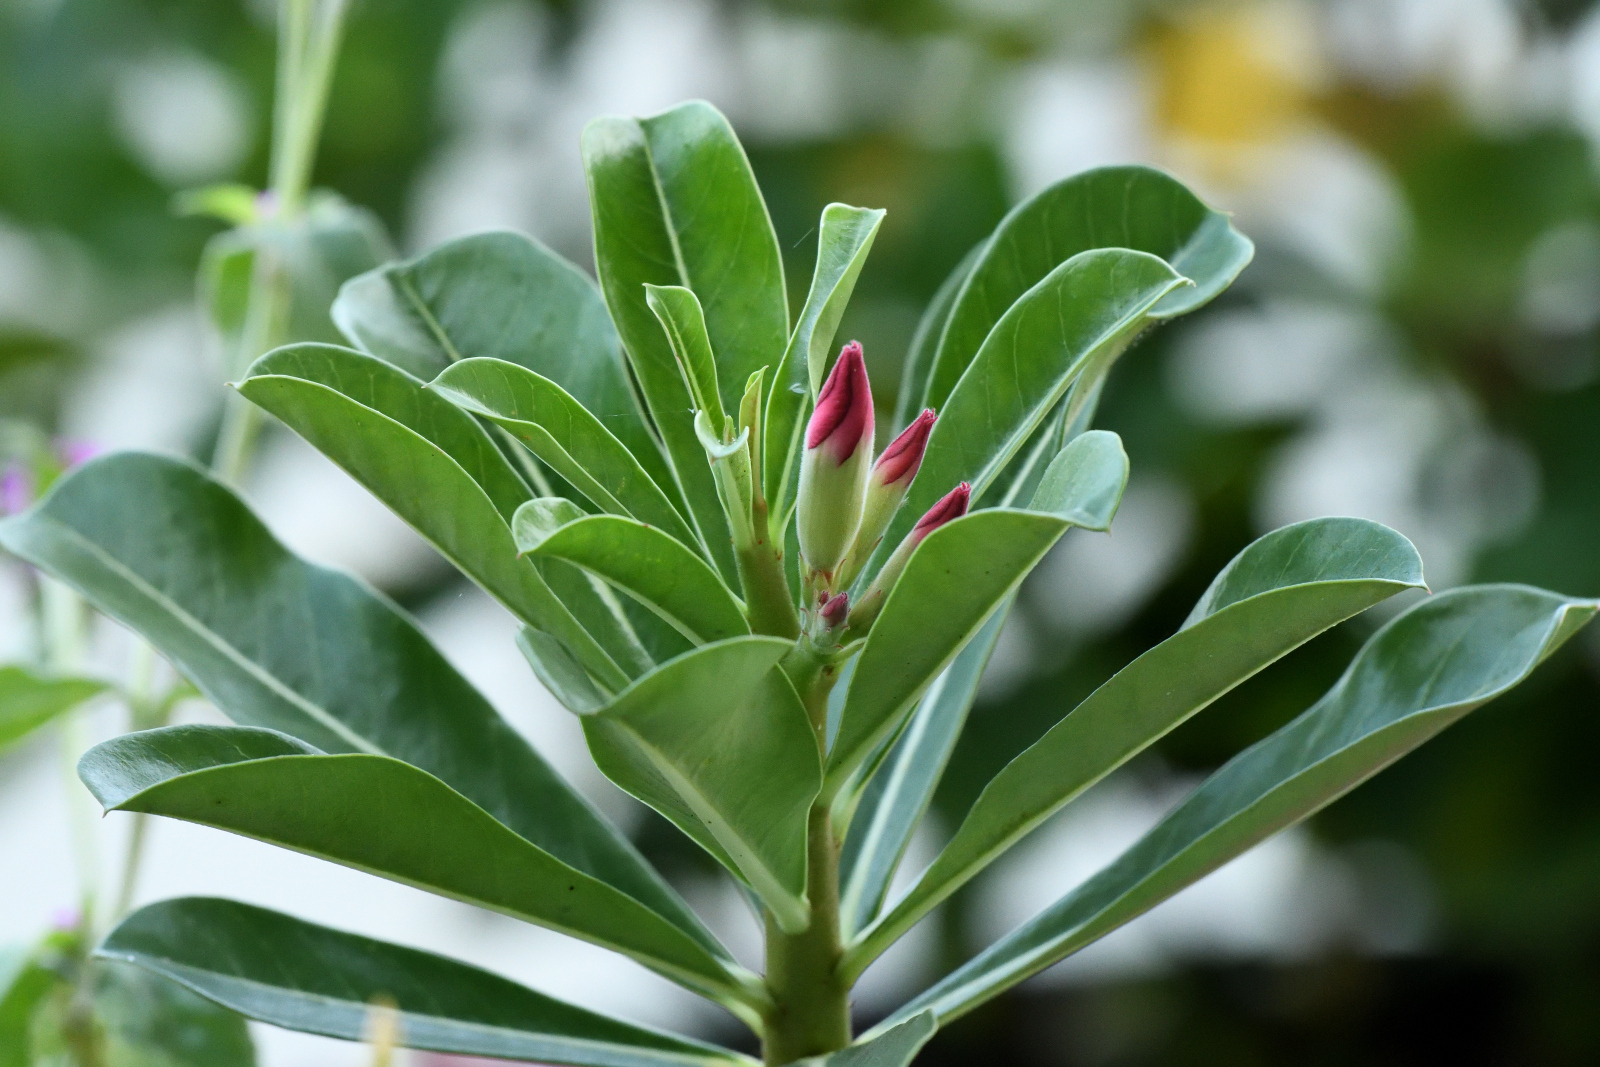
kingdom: Plantae
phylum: Tracheophyta
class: Magnoliopsida
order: Gentianales
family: Apocynaceae
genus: Adenium
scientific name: Adenium obesum
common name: Desert-rose
